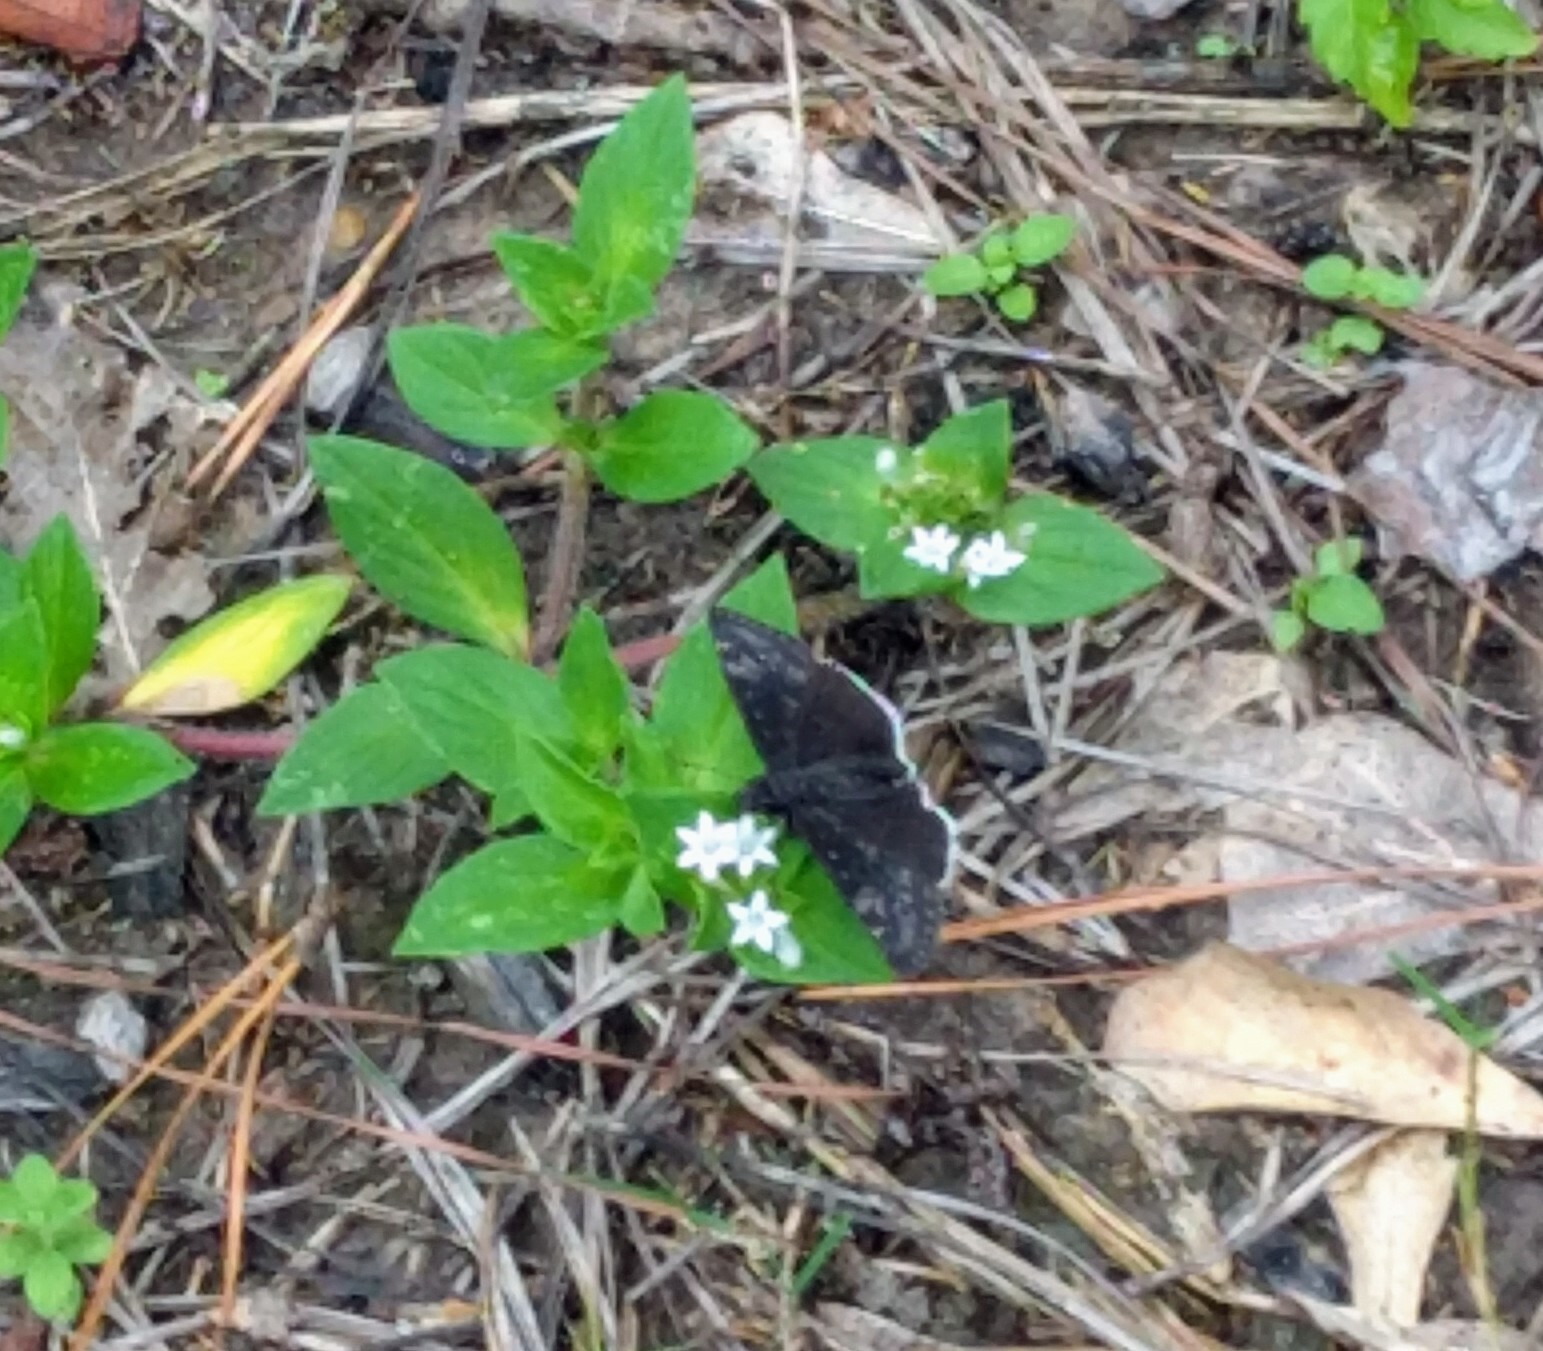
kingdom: Animalia
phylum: Arthropoda
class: Insecta
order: Lepidoptera
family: Hesperiidae
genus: Erynnis
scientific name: Erynnis funeralis
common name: Funereal duskywing
